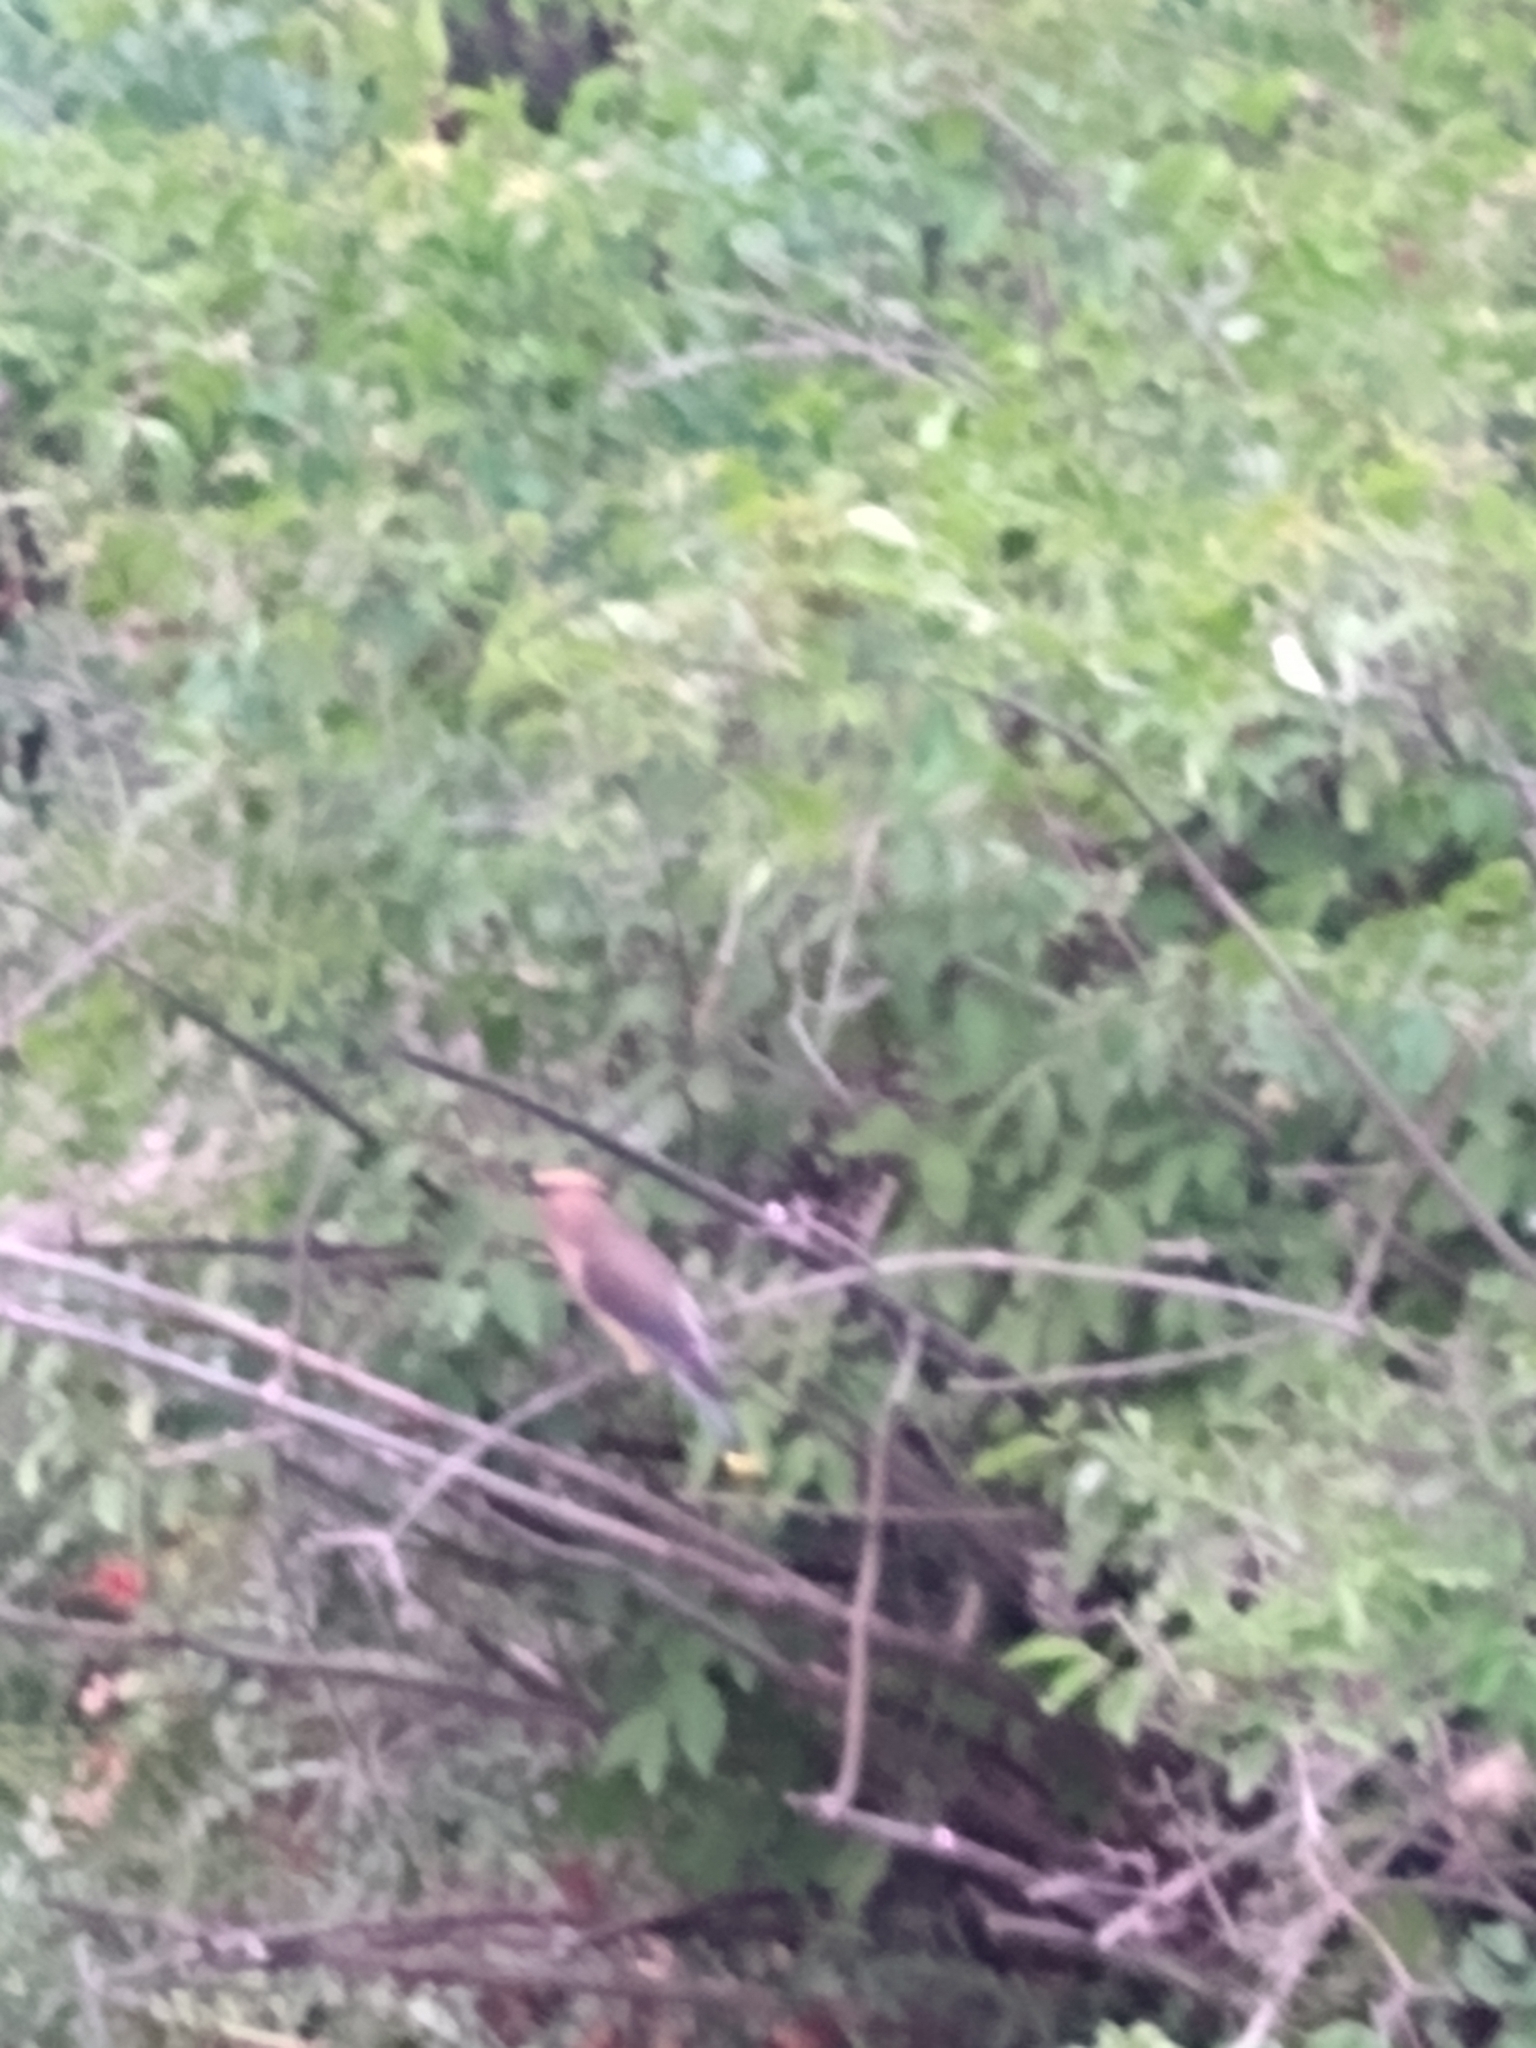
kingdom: Animalia
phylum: Chordata
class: Aves
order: Passeriformes
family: Bombycillidae
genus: Bombycilla
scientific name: Bombycilla cedrorum
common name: Cedar waxwing
